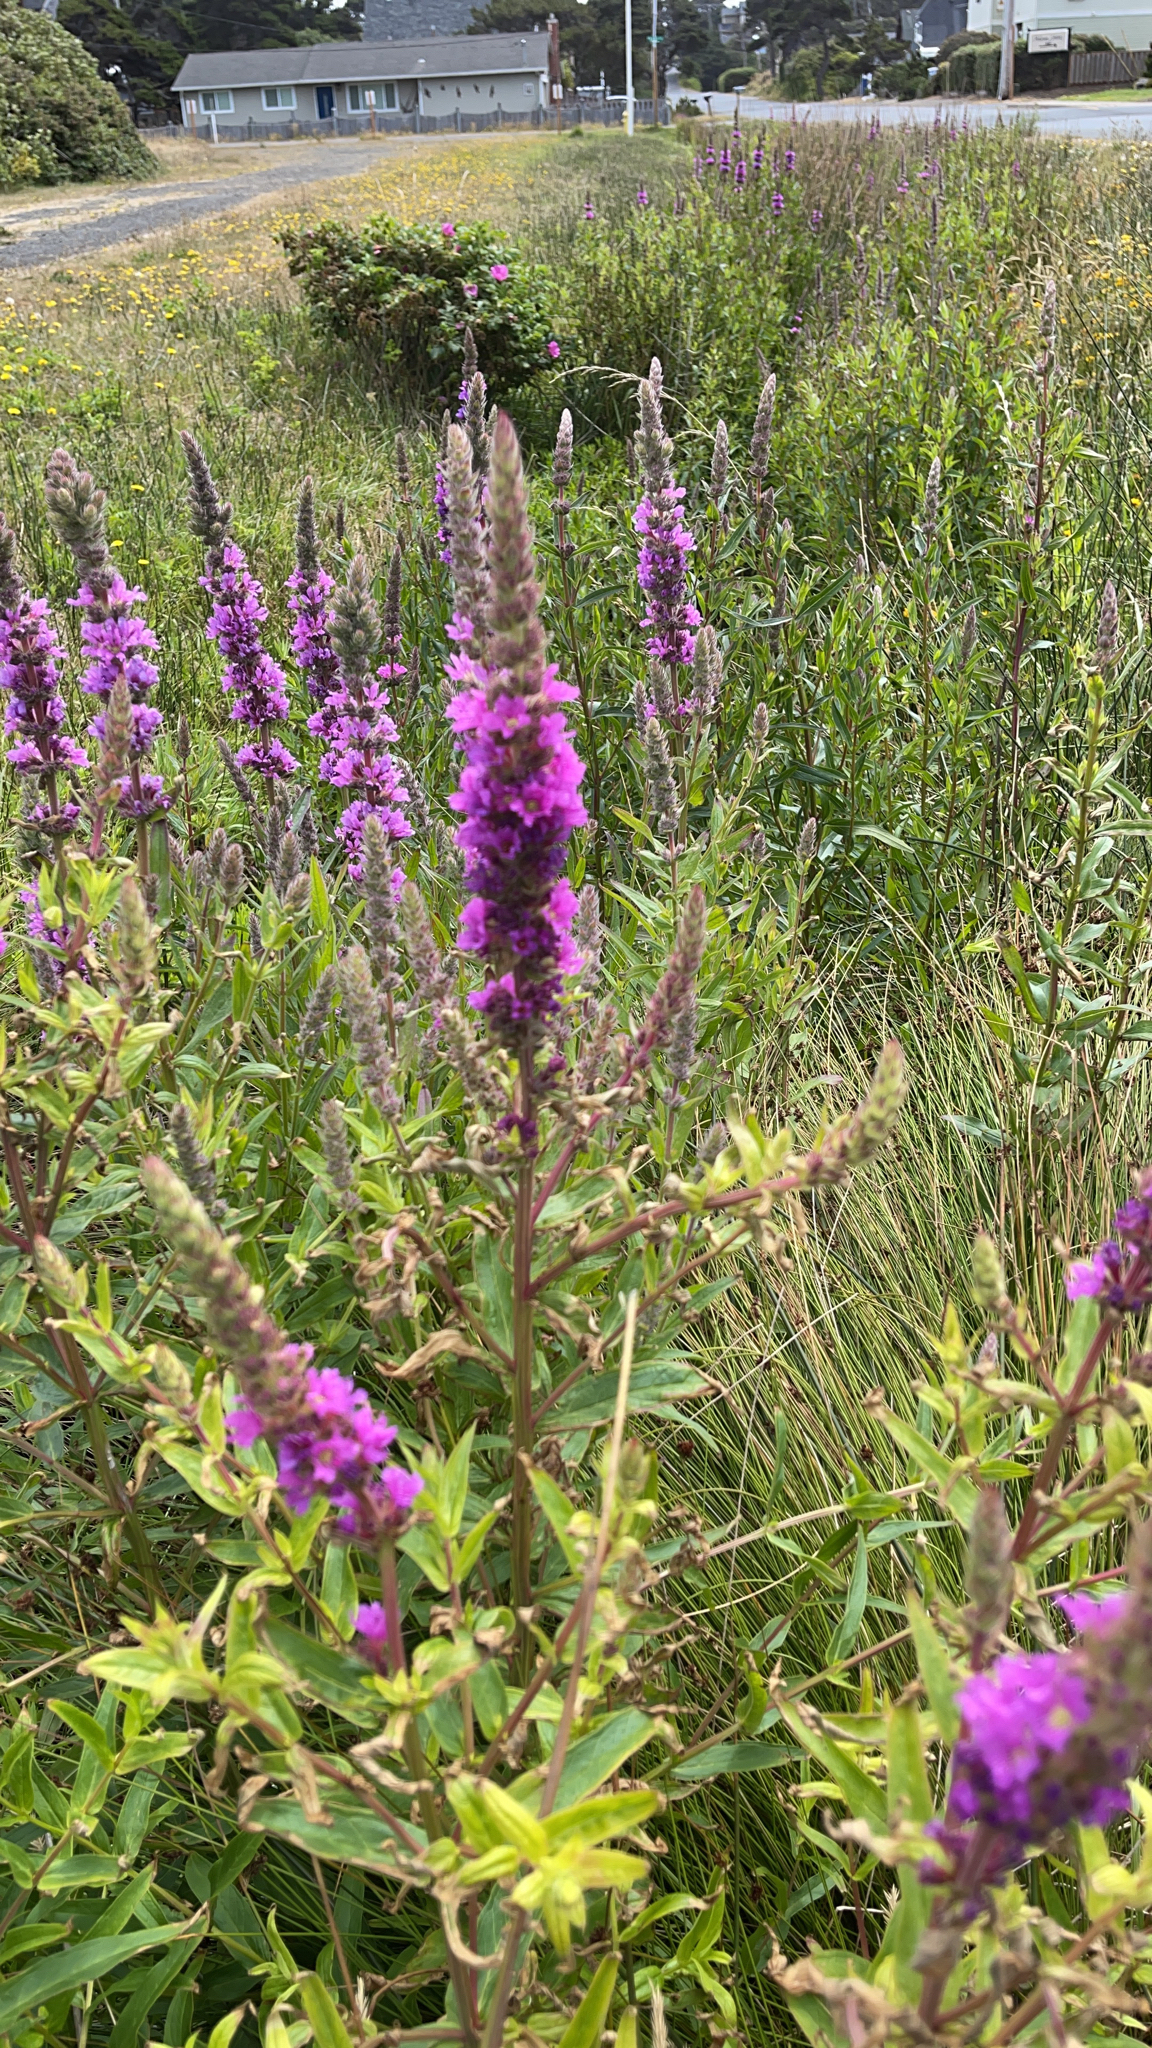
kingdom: Plantae
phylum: Tracheophyta
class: Magnoliopsida
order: Myrtales
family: Lythraceae
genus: Lythrum
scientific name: Lythrum salicaria
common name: Purple loosestrife
